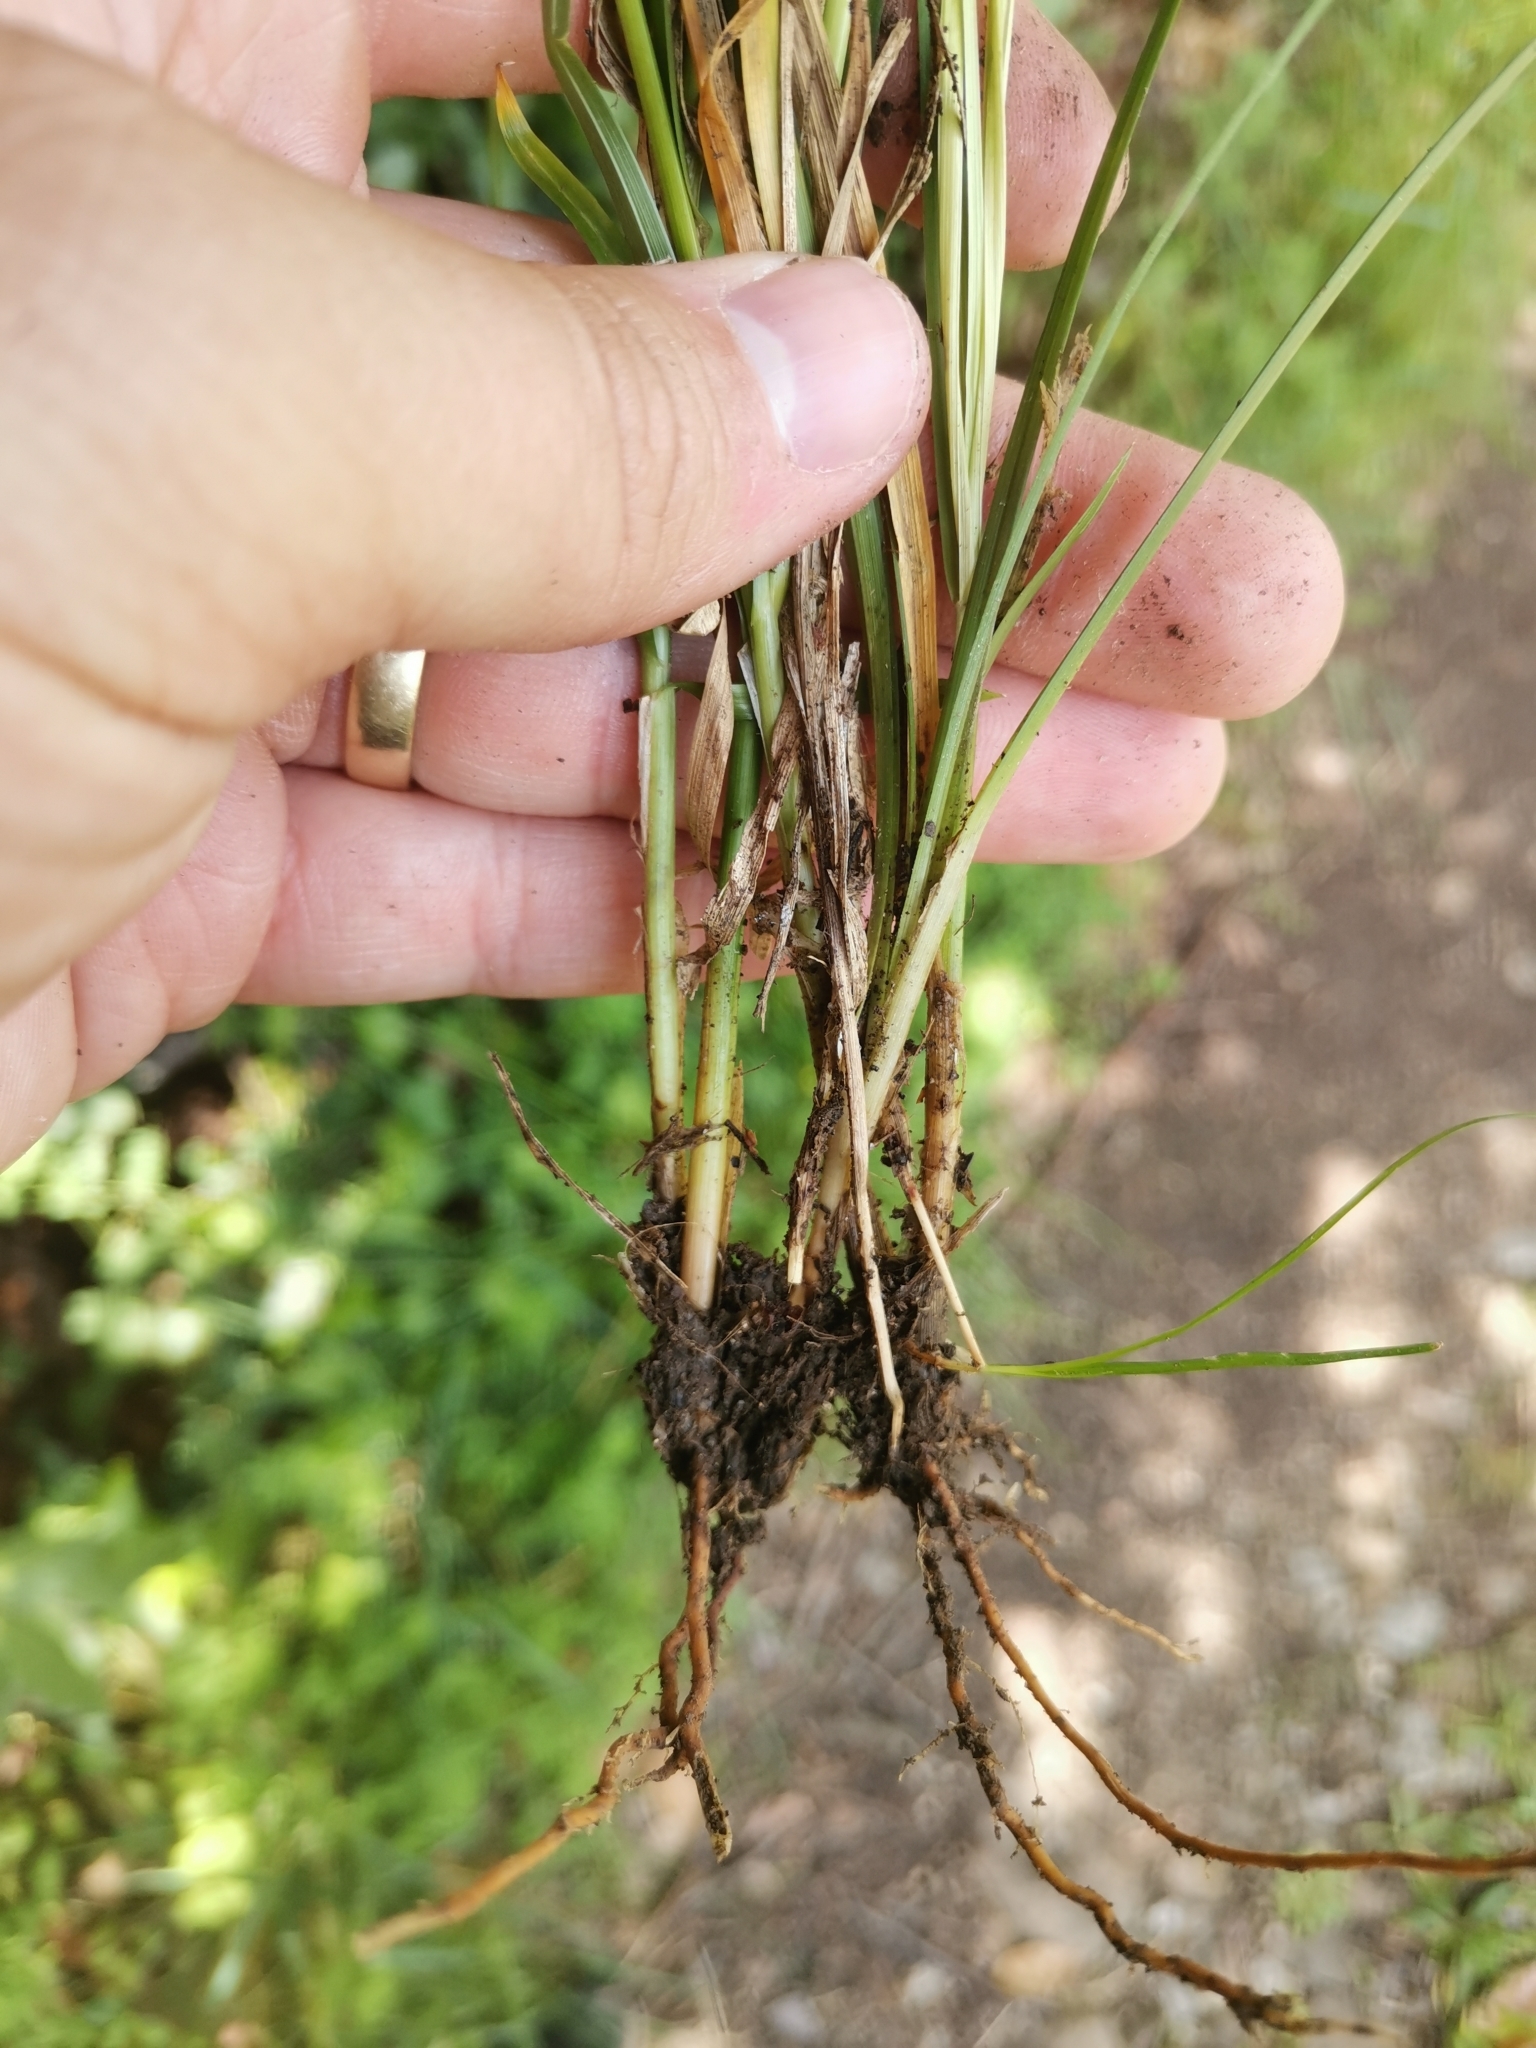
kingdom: Plantae
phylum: Tracheophyta
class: Liliopsida
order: Poales
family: Cyperaceae
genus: Carex
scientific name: Carex divulsa
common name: Grassland sedge
